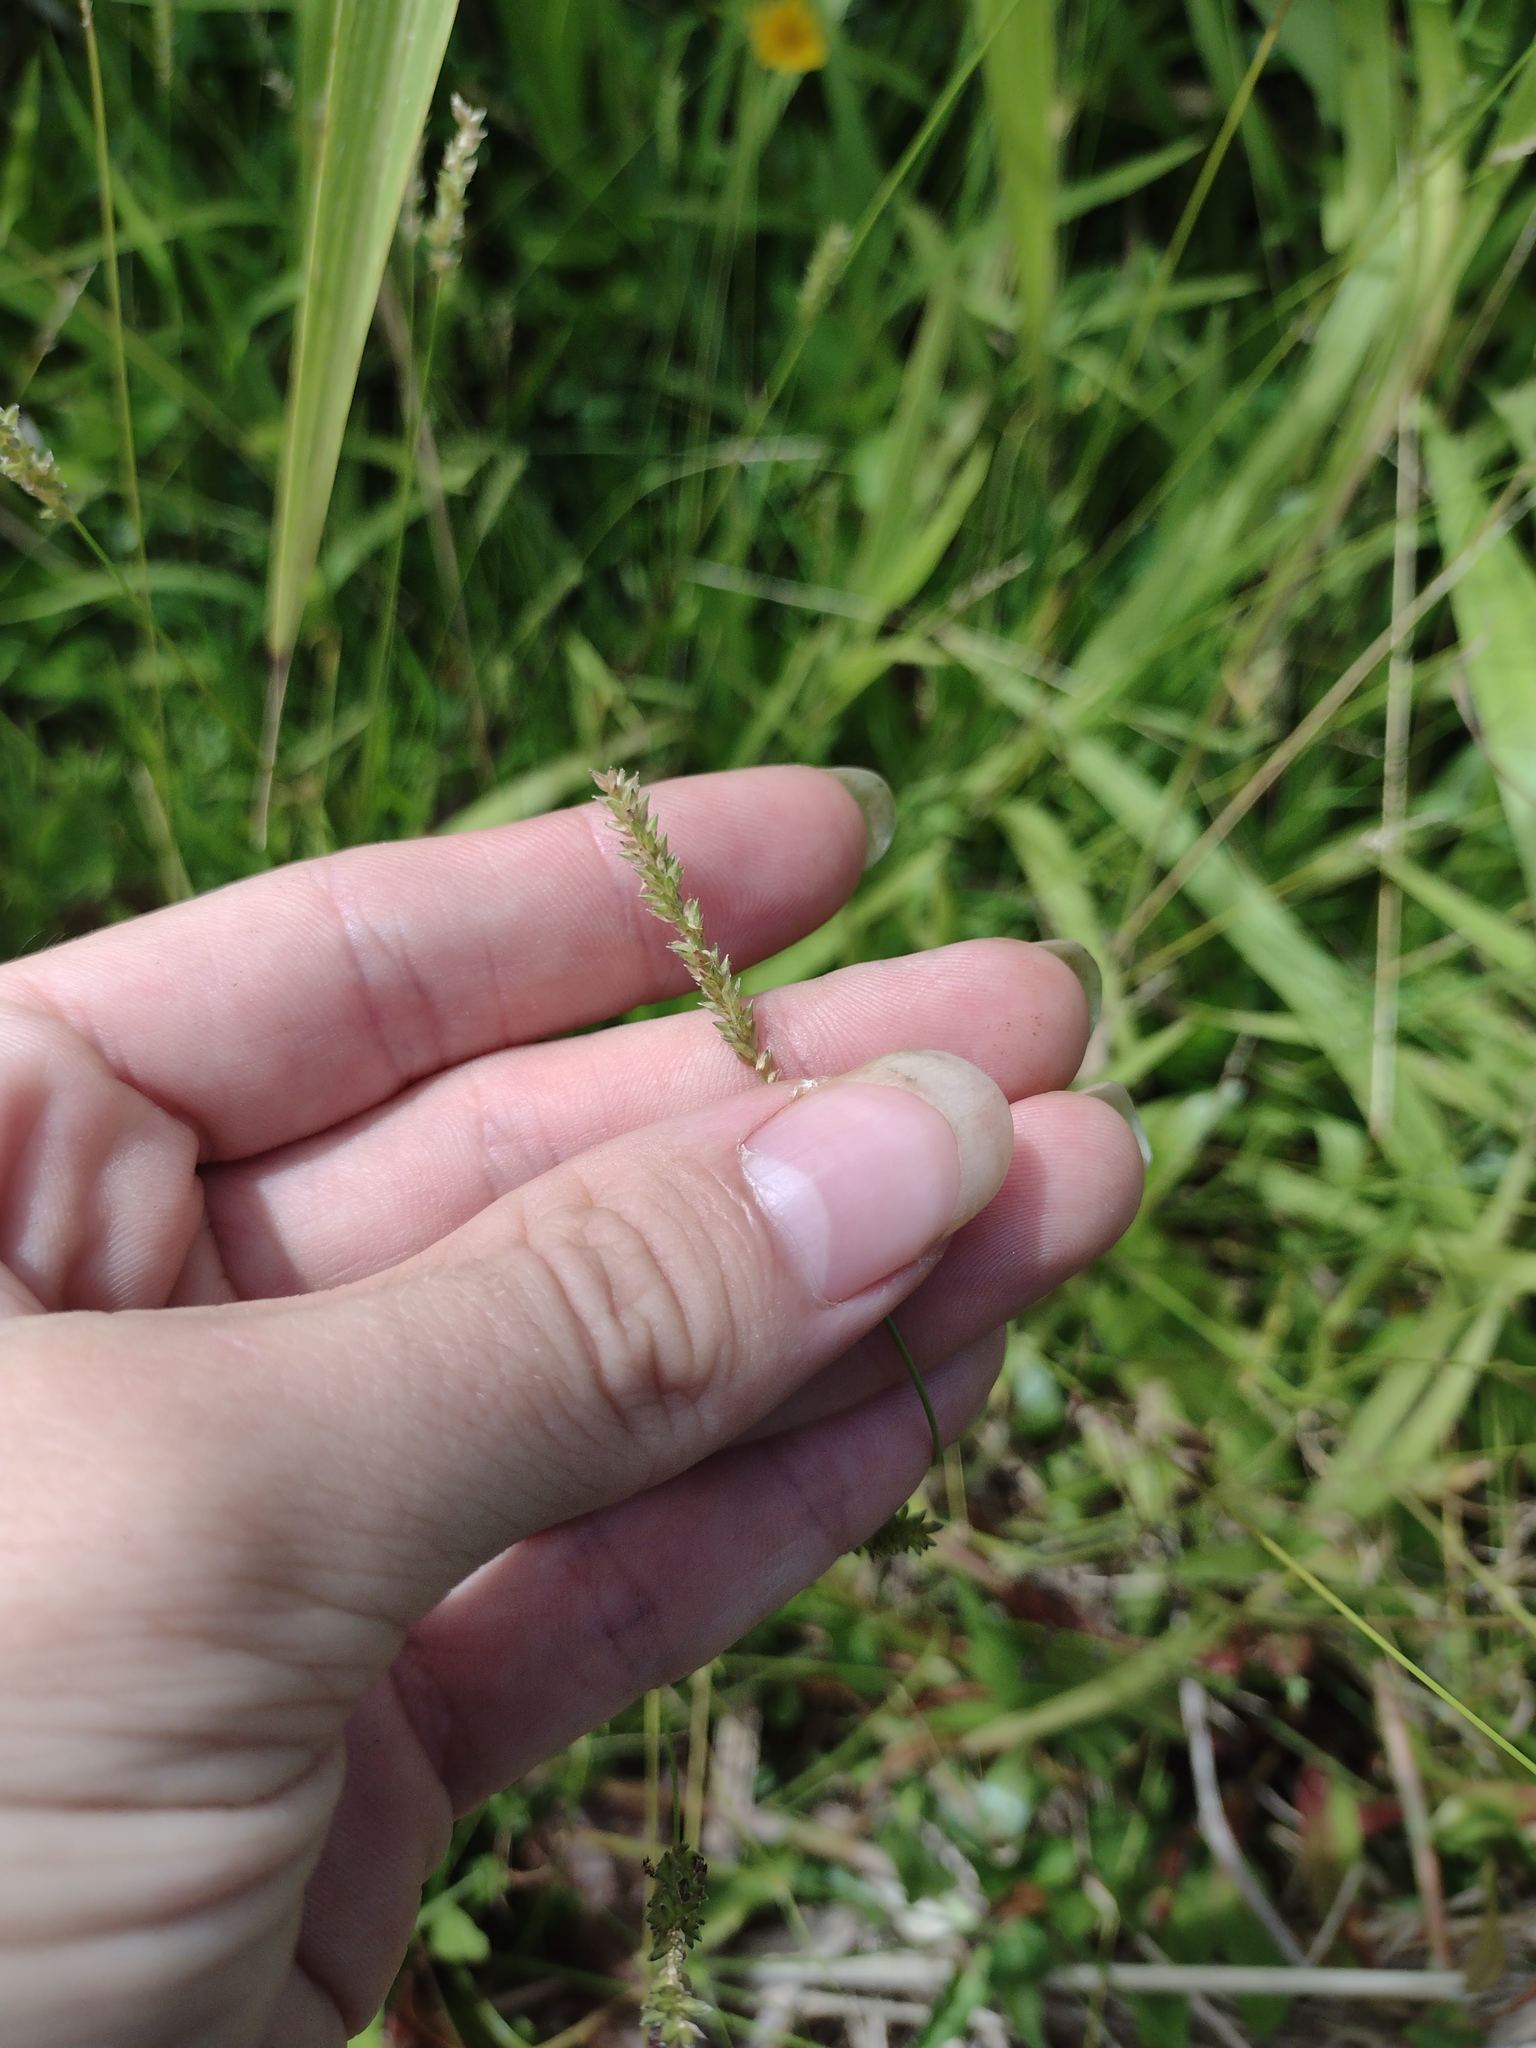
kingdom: Plantae
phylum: Tracheophyta
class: Liliopsida
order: Poales
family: Poaceae
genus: Sacciolepis
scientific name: Sacciolepis indica
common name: Glenwoodgrass
